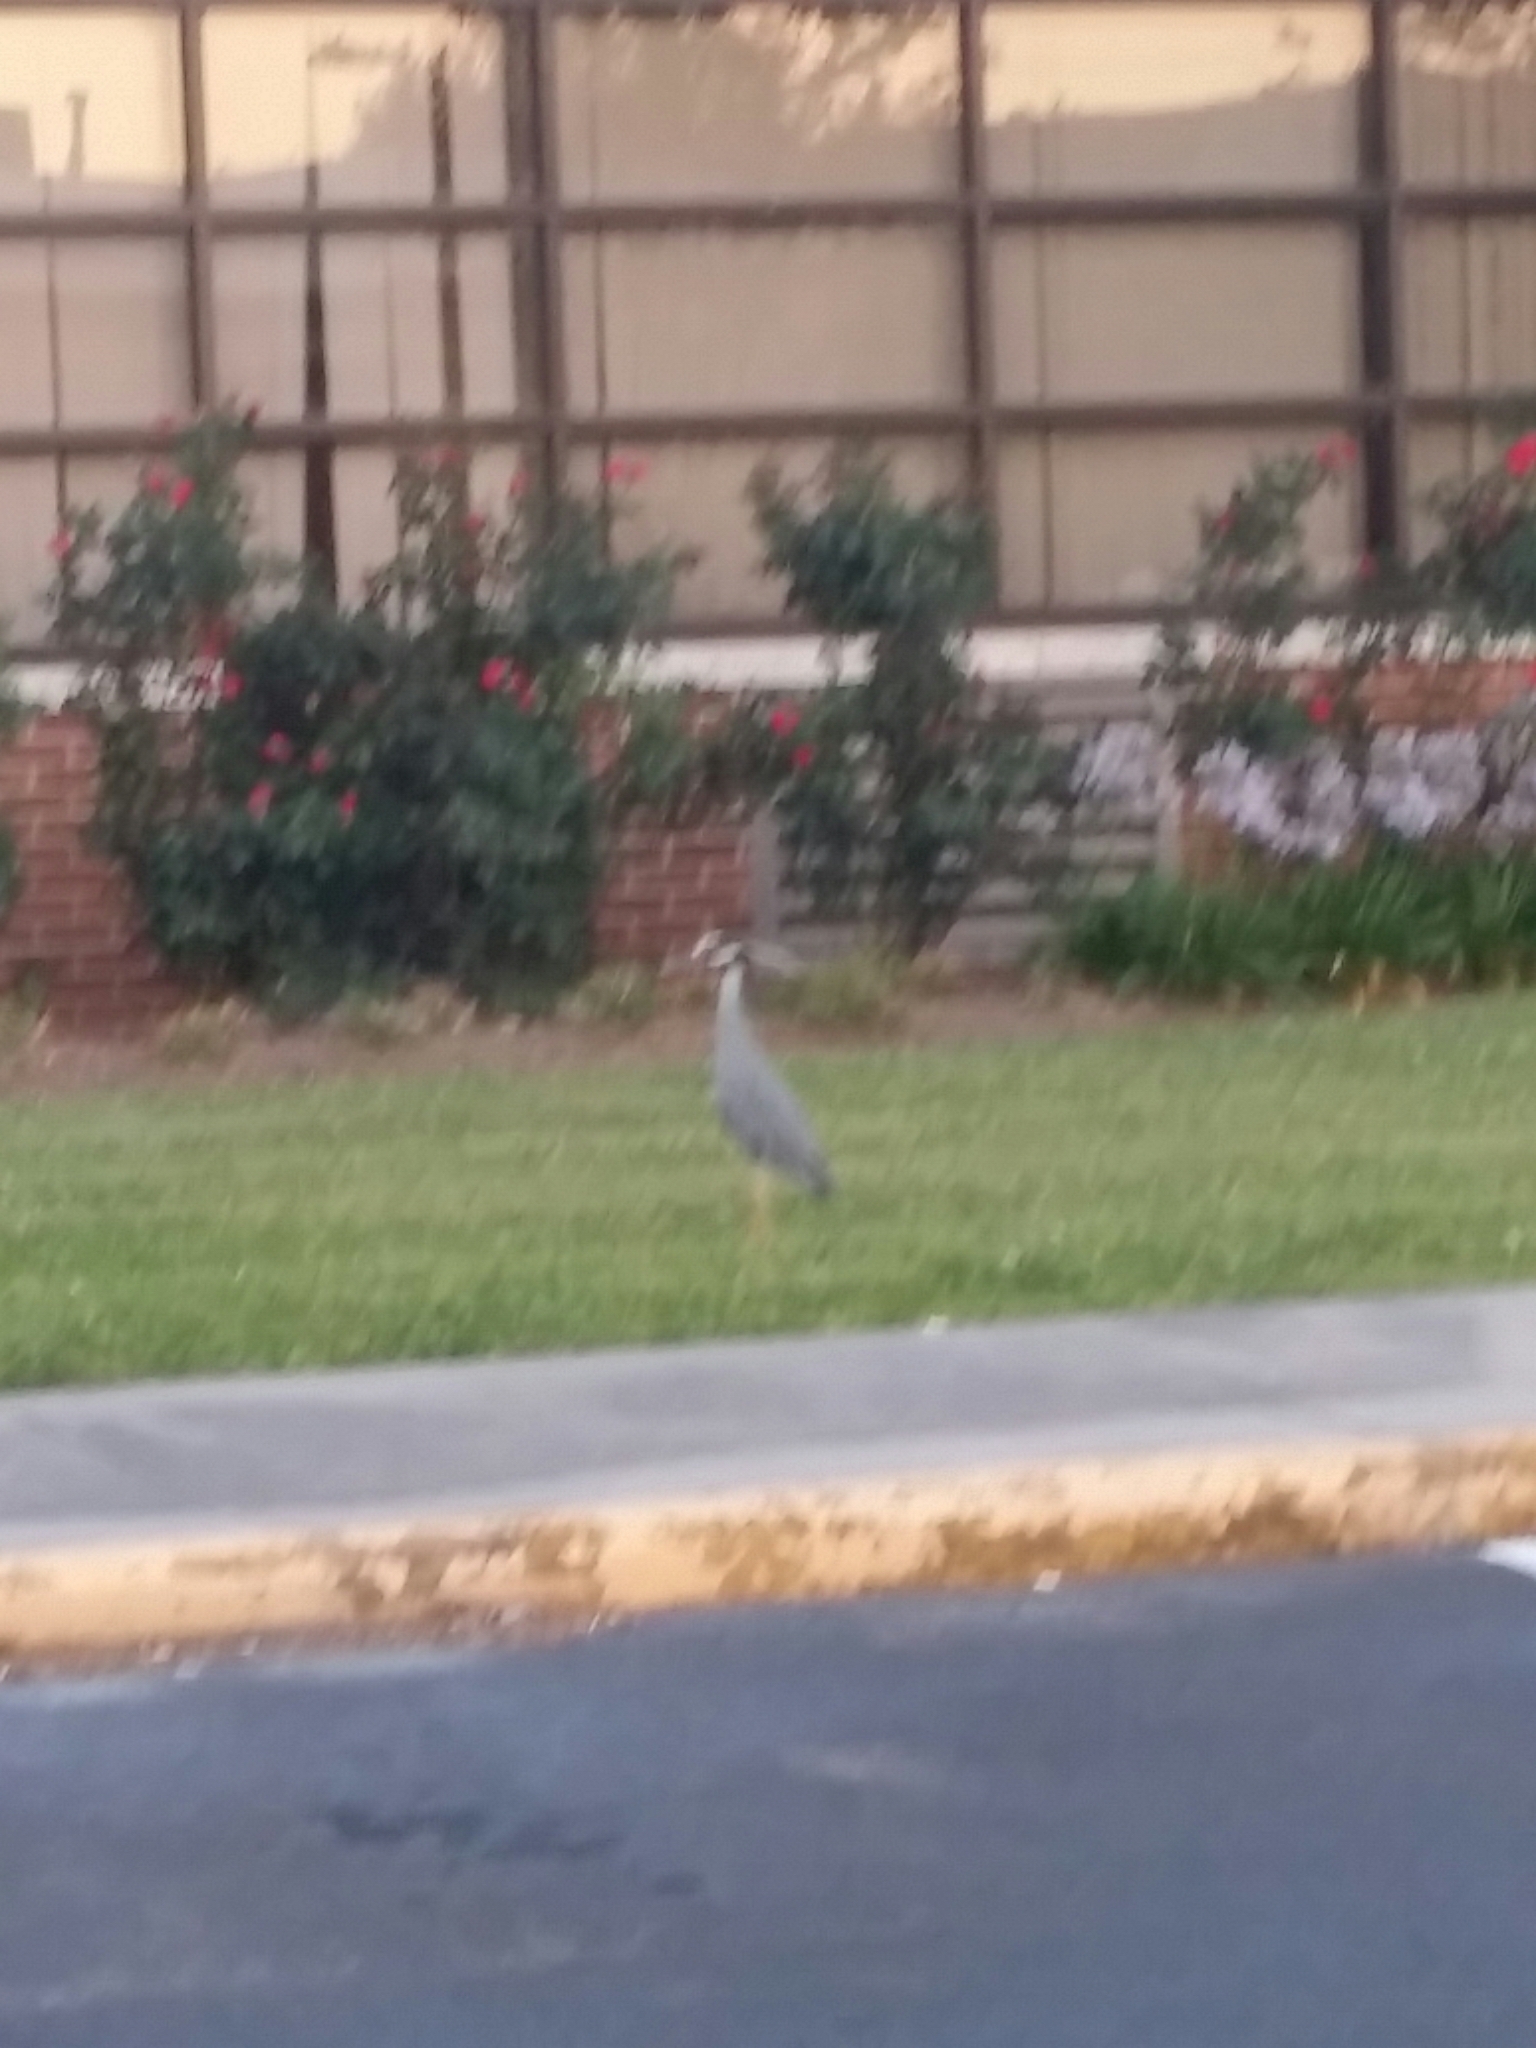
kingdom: Animalia
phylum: Chordata
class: Aves
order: Pelecaniformes
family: Ardeidae
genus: Nyctanassa
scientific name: Nyctanassa violacea
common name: Yellow-crowned night heron
